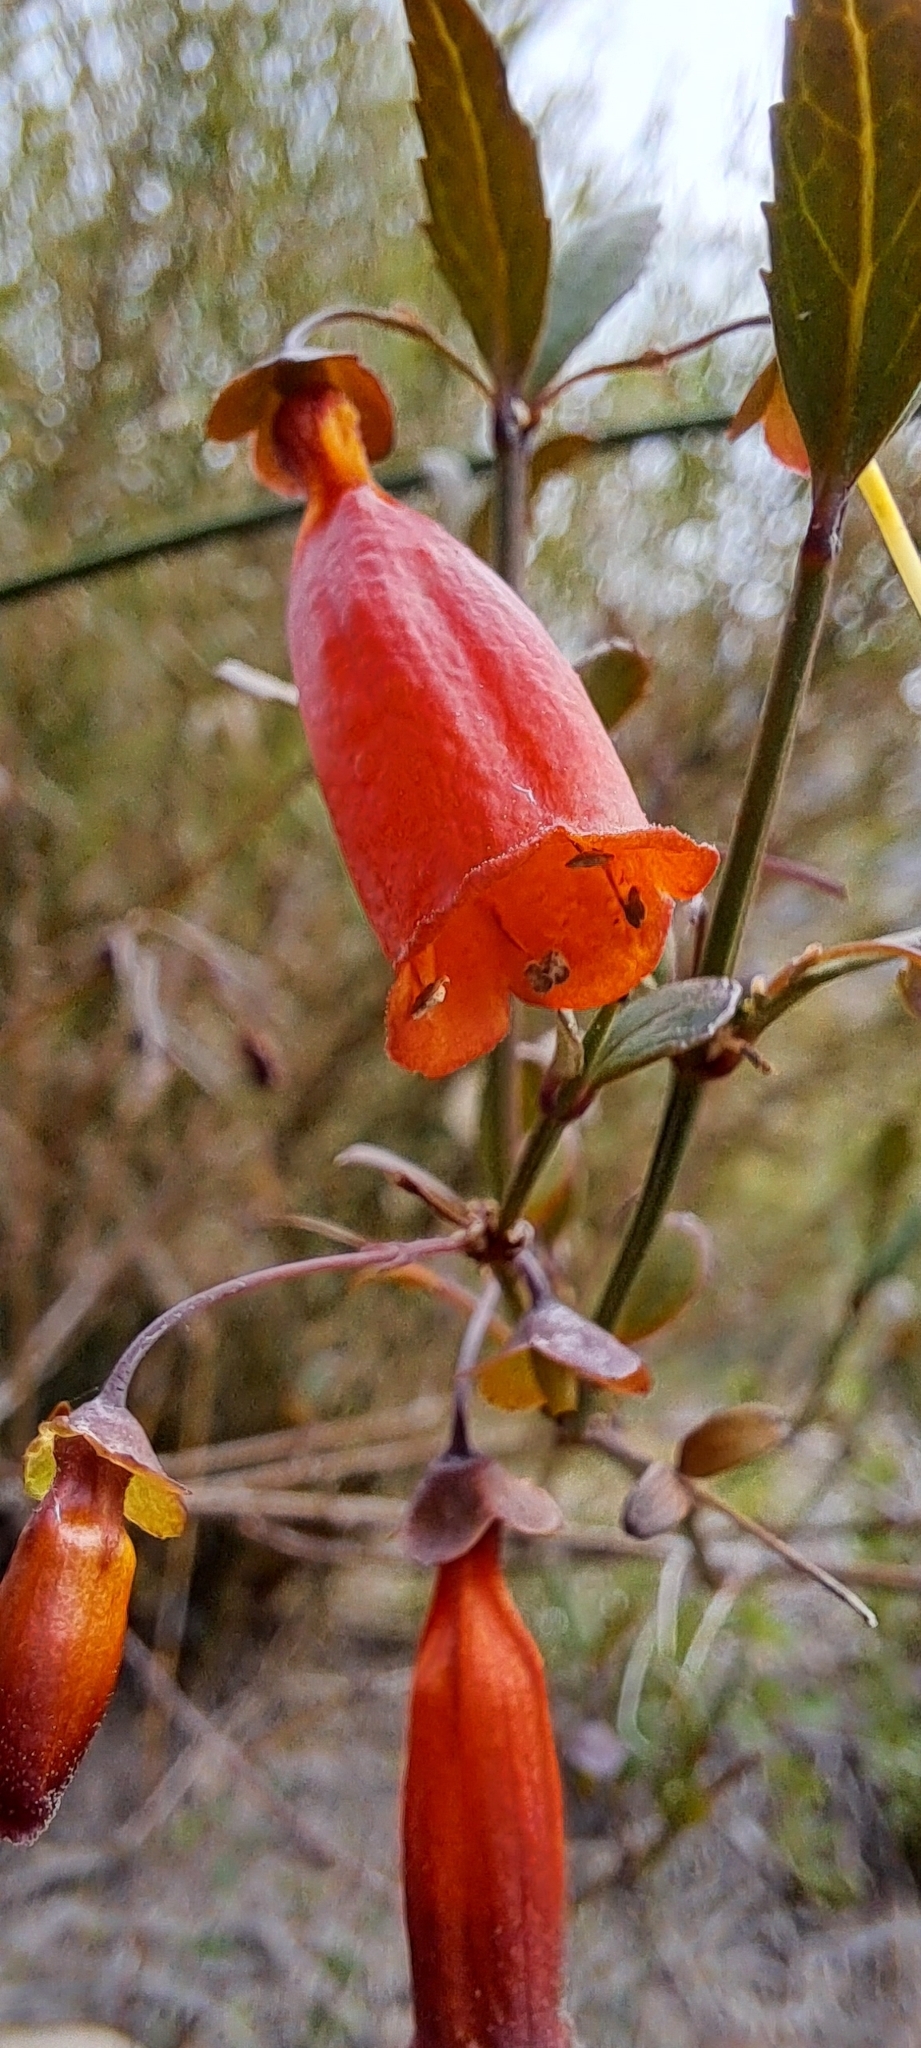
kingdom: Plantae
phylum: Tracheophyta
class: Magnoliopsida
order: Lamiales
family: Stilbaceae
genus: Halleria
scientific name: Halleria elliptica
